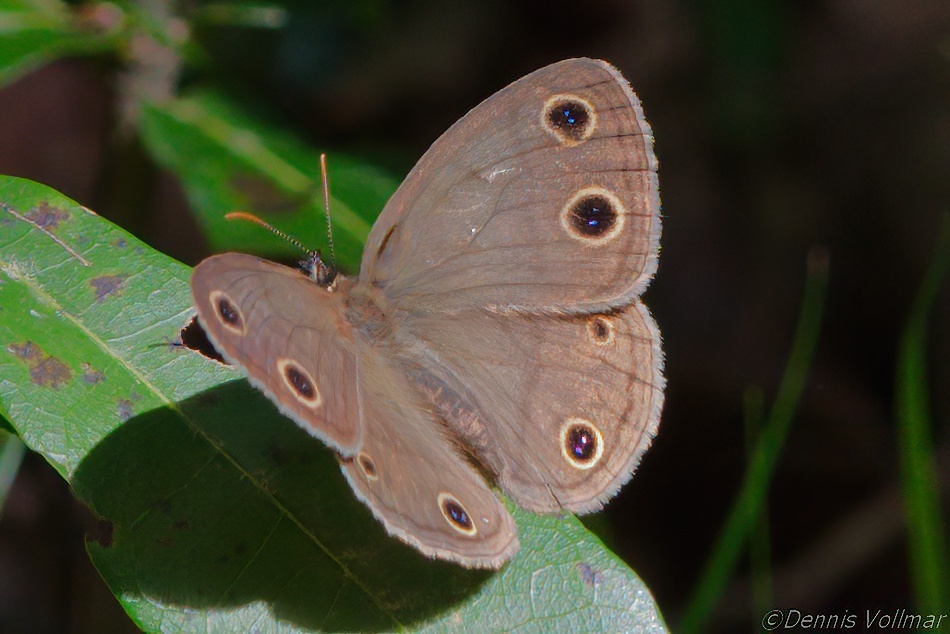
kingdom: Animalia
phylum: Arthropoda
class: Insecta
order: Lepidoptera
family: Nymphalidae
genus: Euptychia
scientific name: Euptychia cymela
